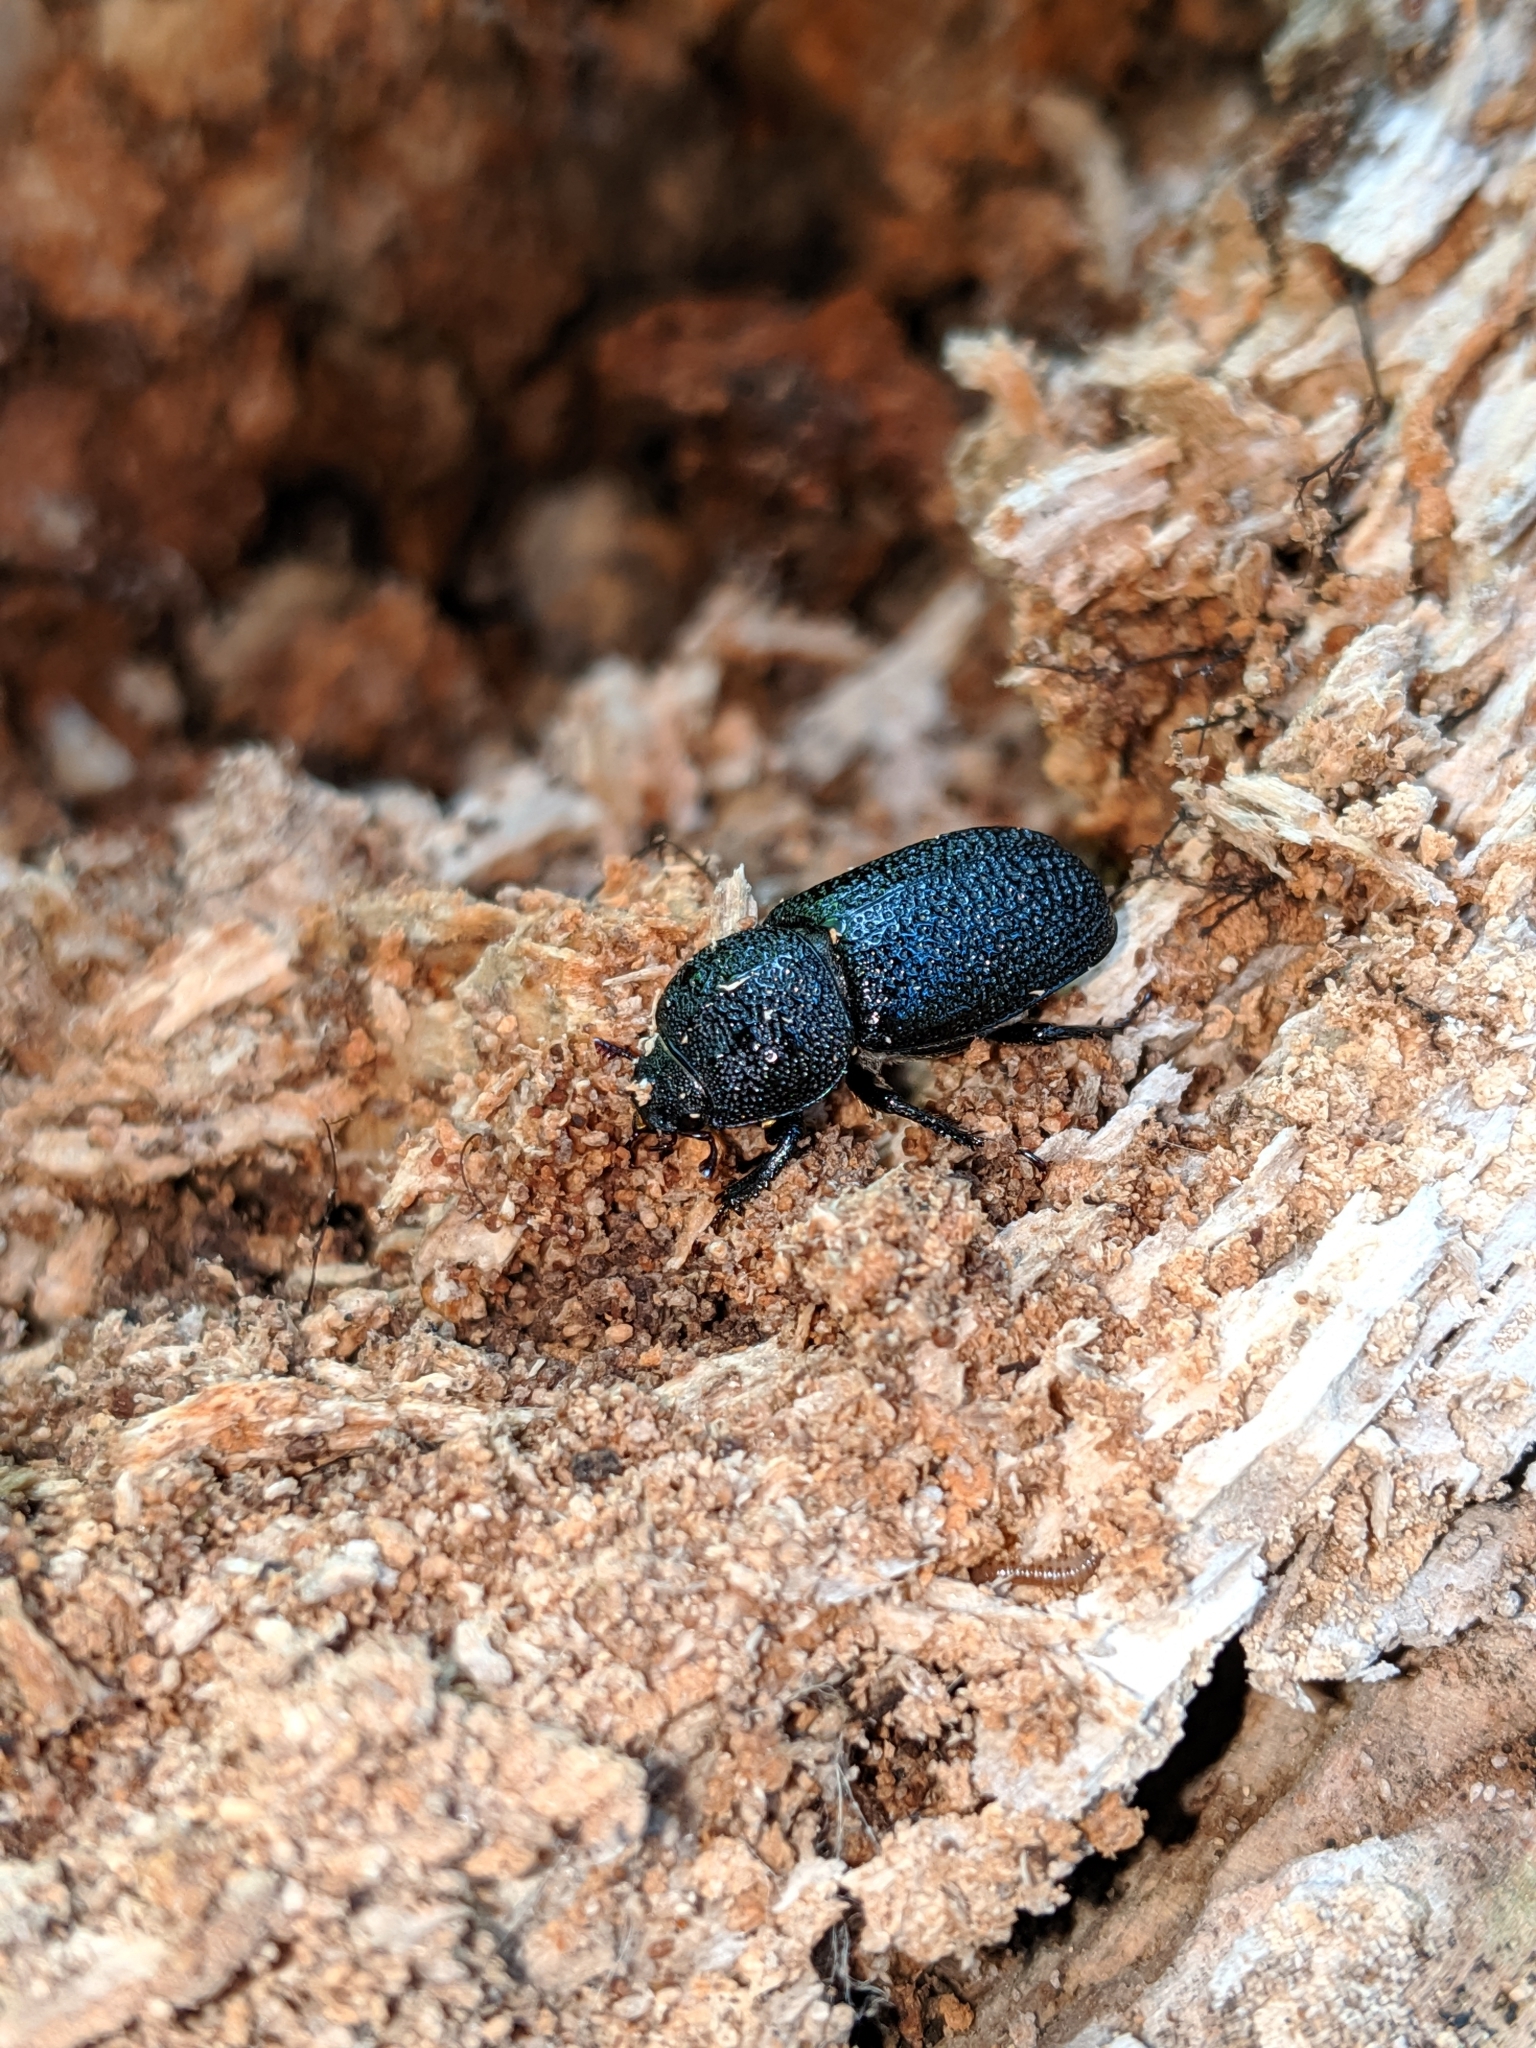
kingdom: Animalia
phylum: Arthropoda
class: Insecta
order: Coleoptera
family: Lucanidae
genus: Sinodendron
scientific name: Sinodendron rugosum
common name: Rugose stag beelte
